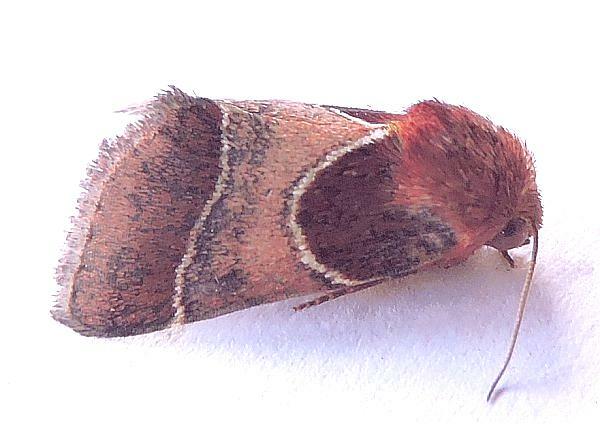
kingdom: Animalia
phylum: Arthropoda
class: Insecta
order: Lepidoptera
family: Noctuidae
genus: Schinia
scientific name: Schinia arcigera
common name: Arcigera flower moth
